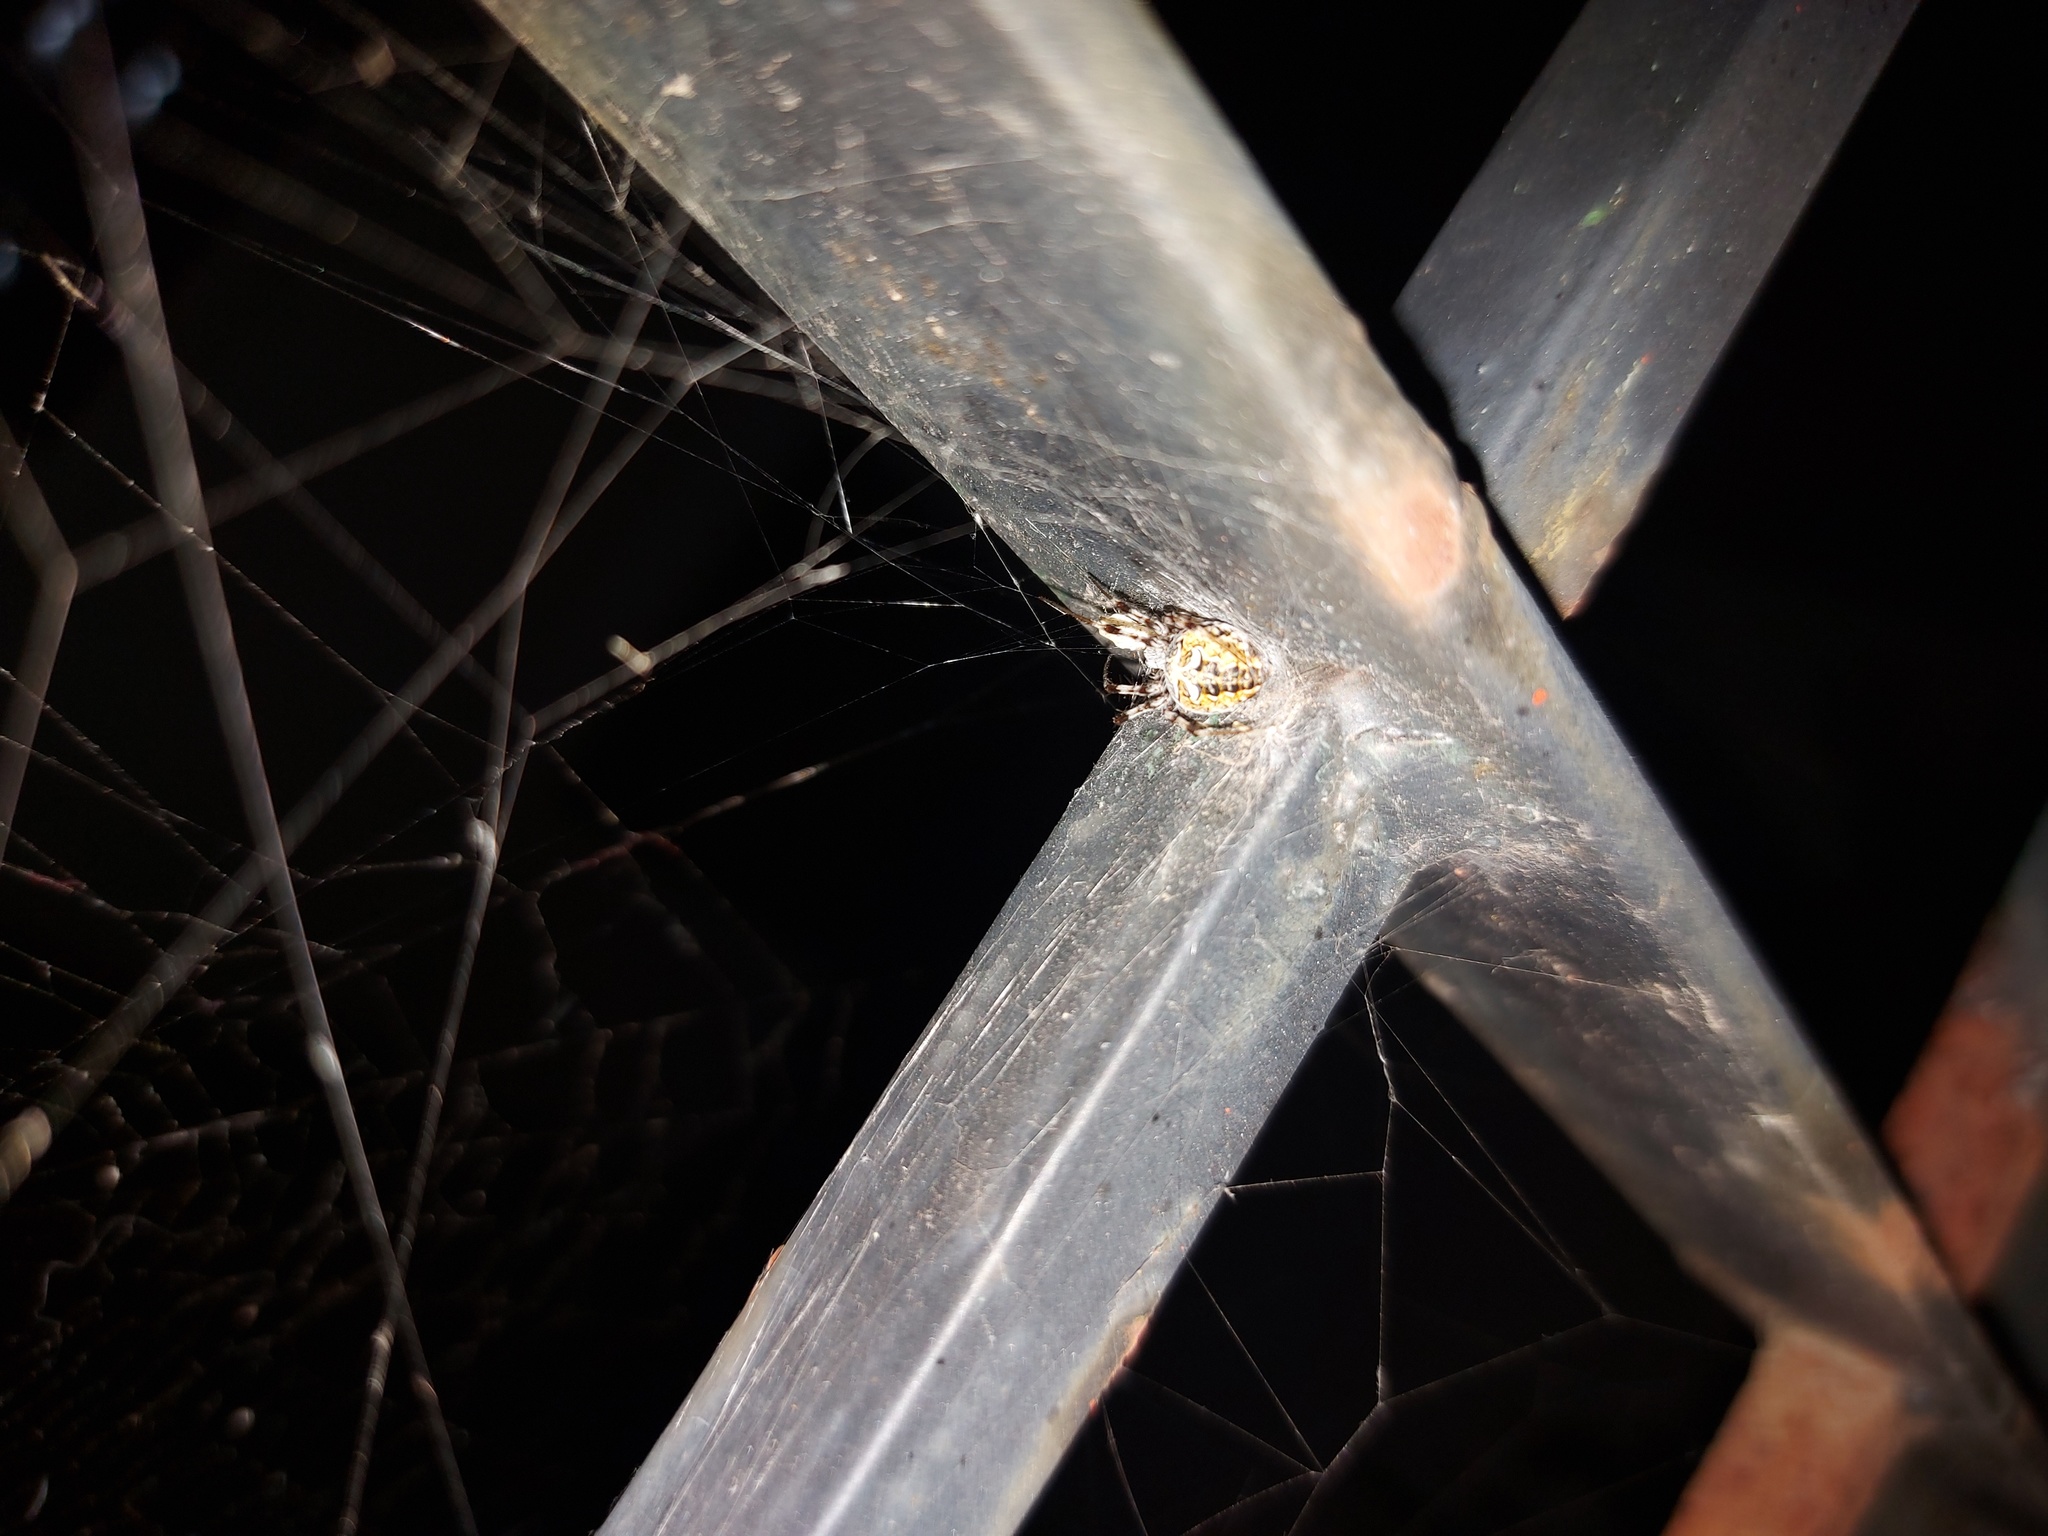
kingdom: Animalia
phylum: Arthropoda
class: Arachnida
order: Araneae
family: Araneidae
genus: Metepeira
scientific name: Metepeira
